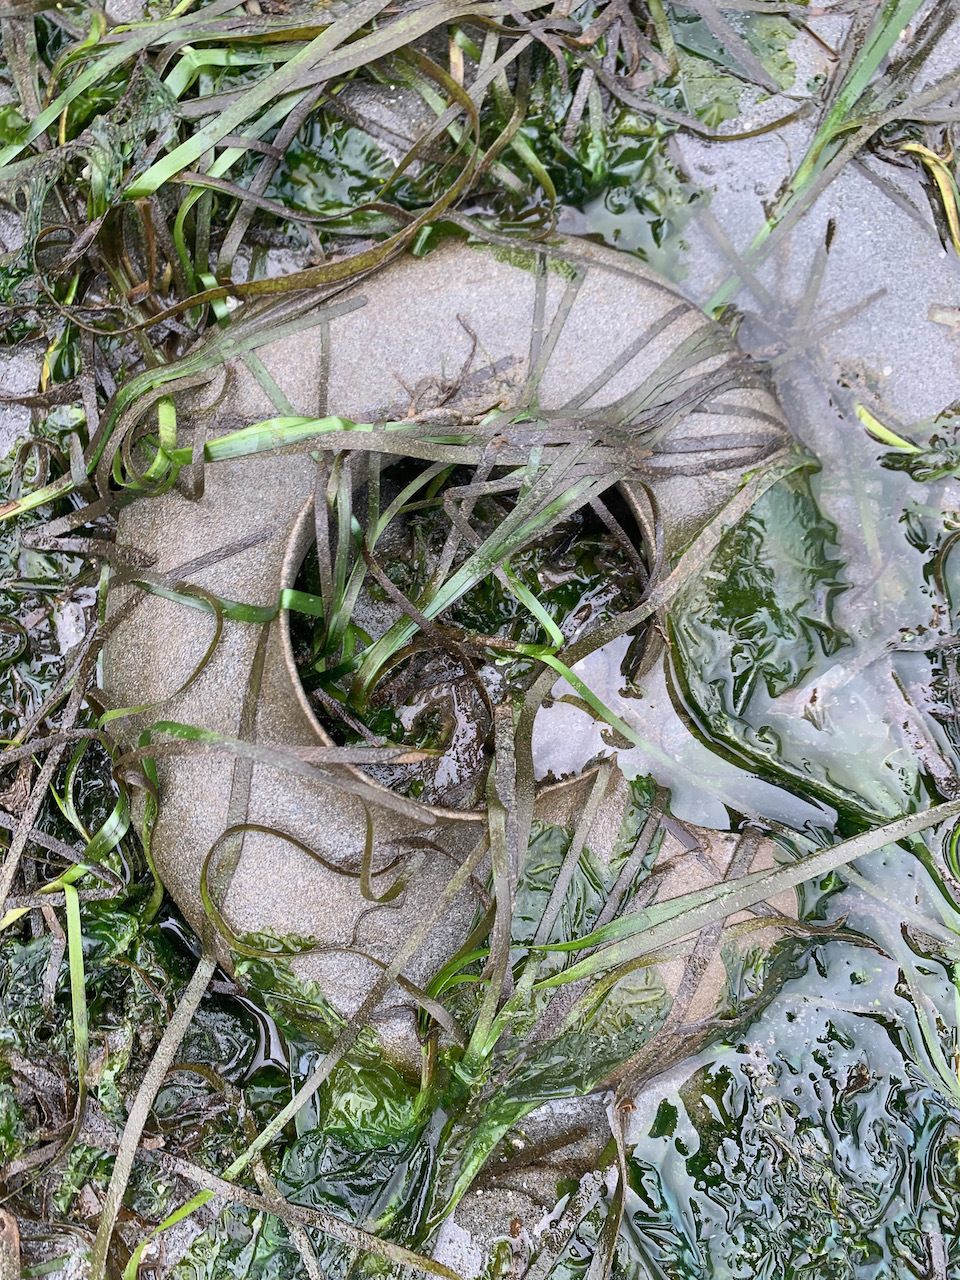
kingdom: Animalia
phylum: Mollusca
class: Gastropoda
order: Littorinimorpha
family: Naticidae
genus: Neverita
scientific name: Neverita lewisii
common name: Lewis' moonsnail
